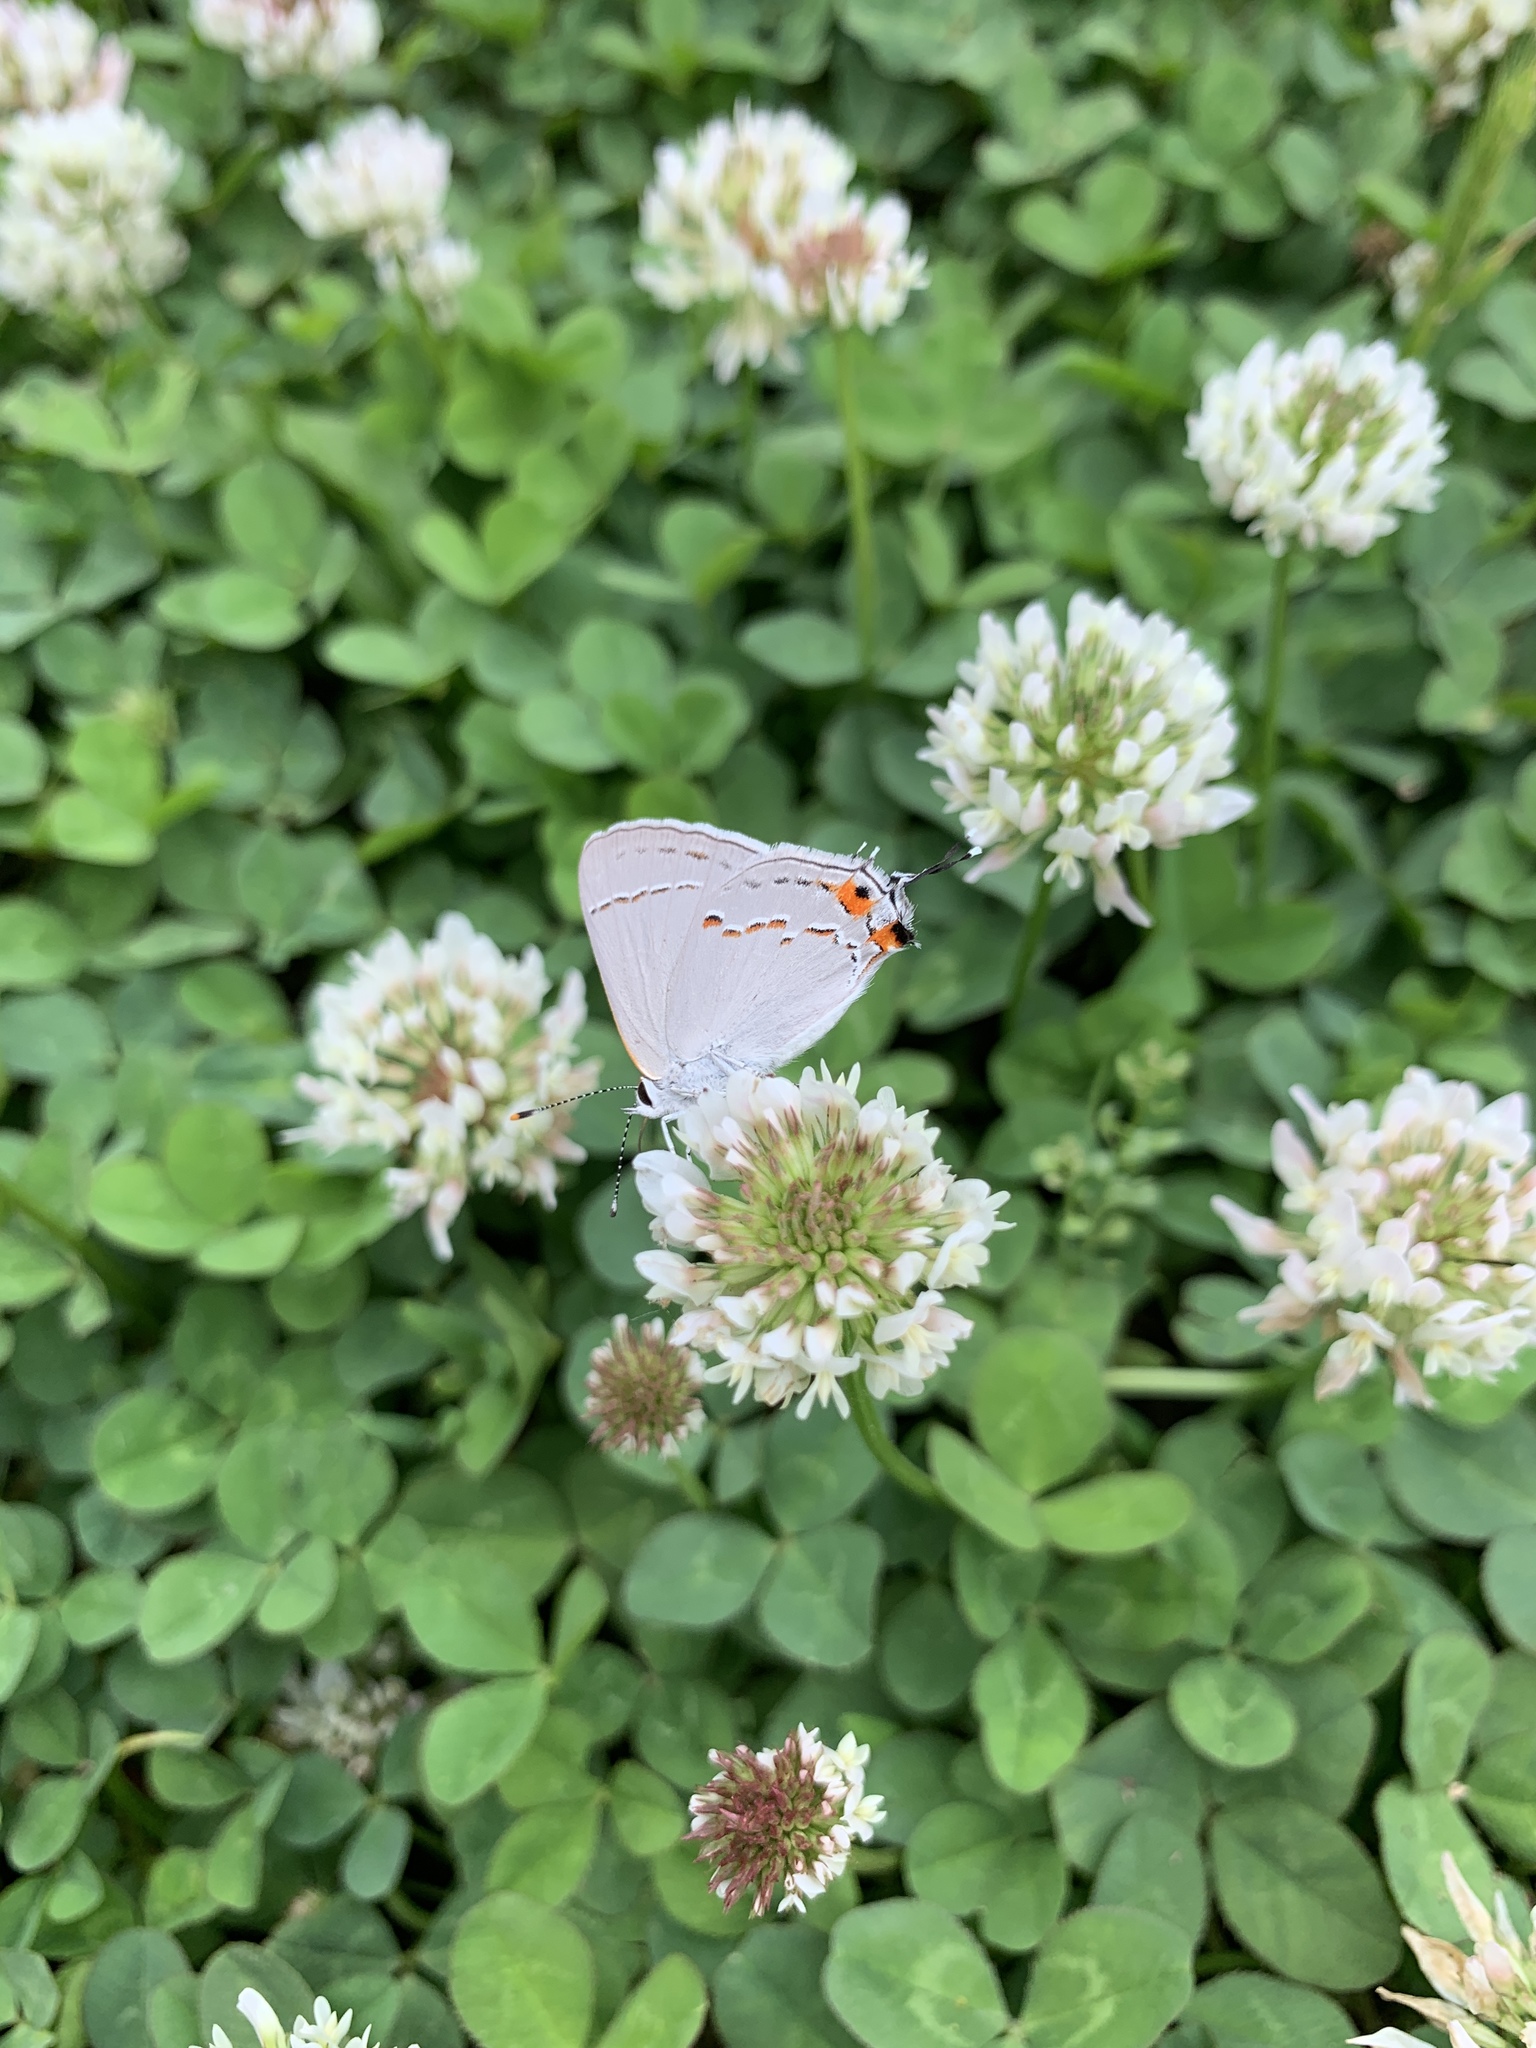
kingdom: Animalia
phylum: Arthropoda
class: Insecta
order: Lepidoptera
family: Lycaenidae
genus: Strymon
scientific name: Strymon melinus
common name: Gray hairstreak
